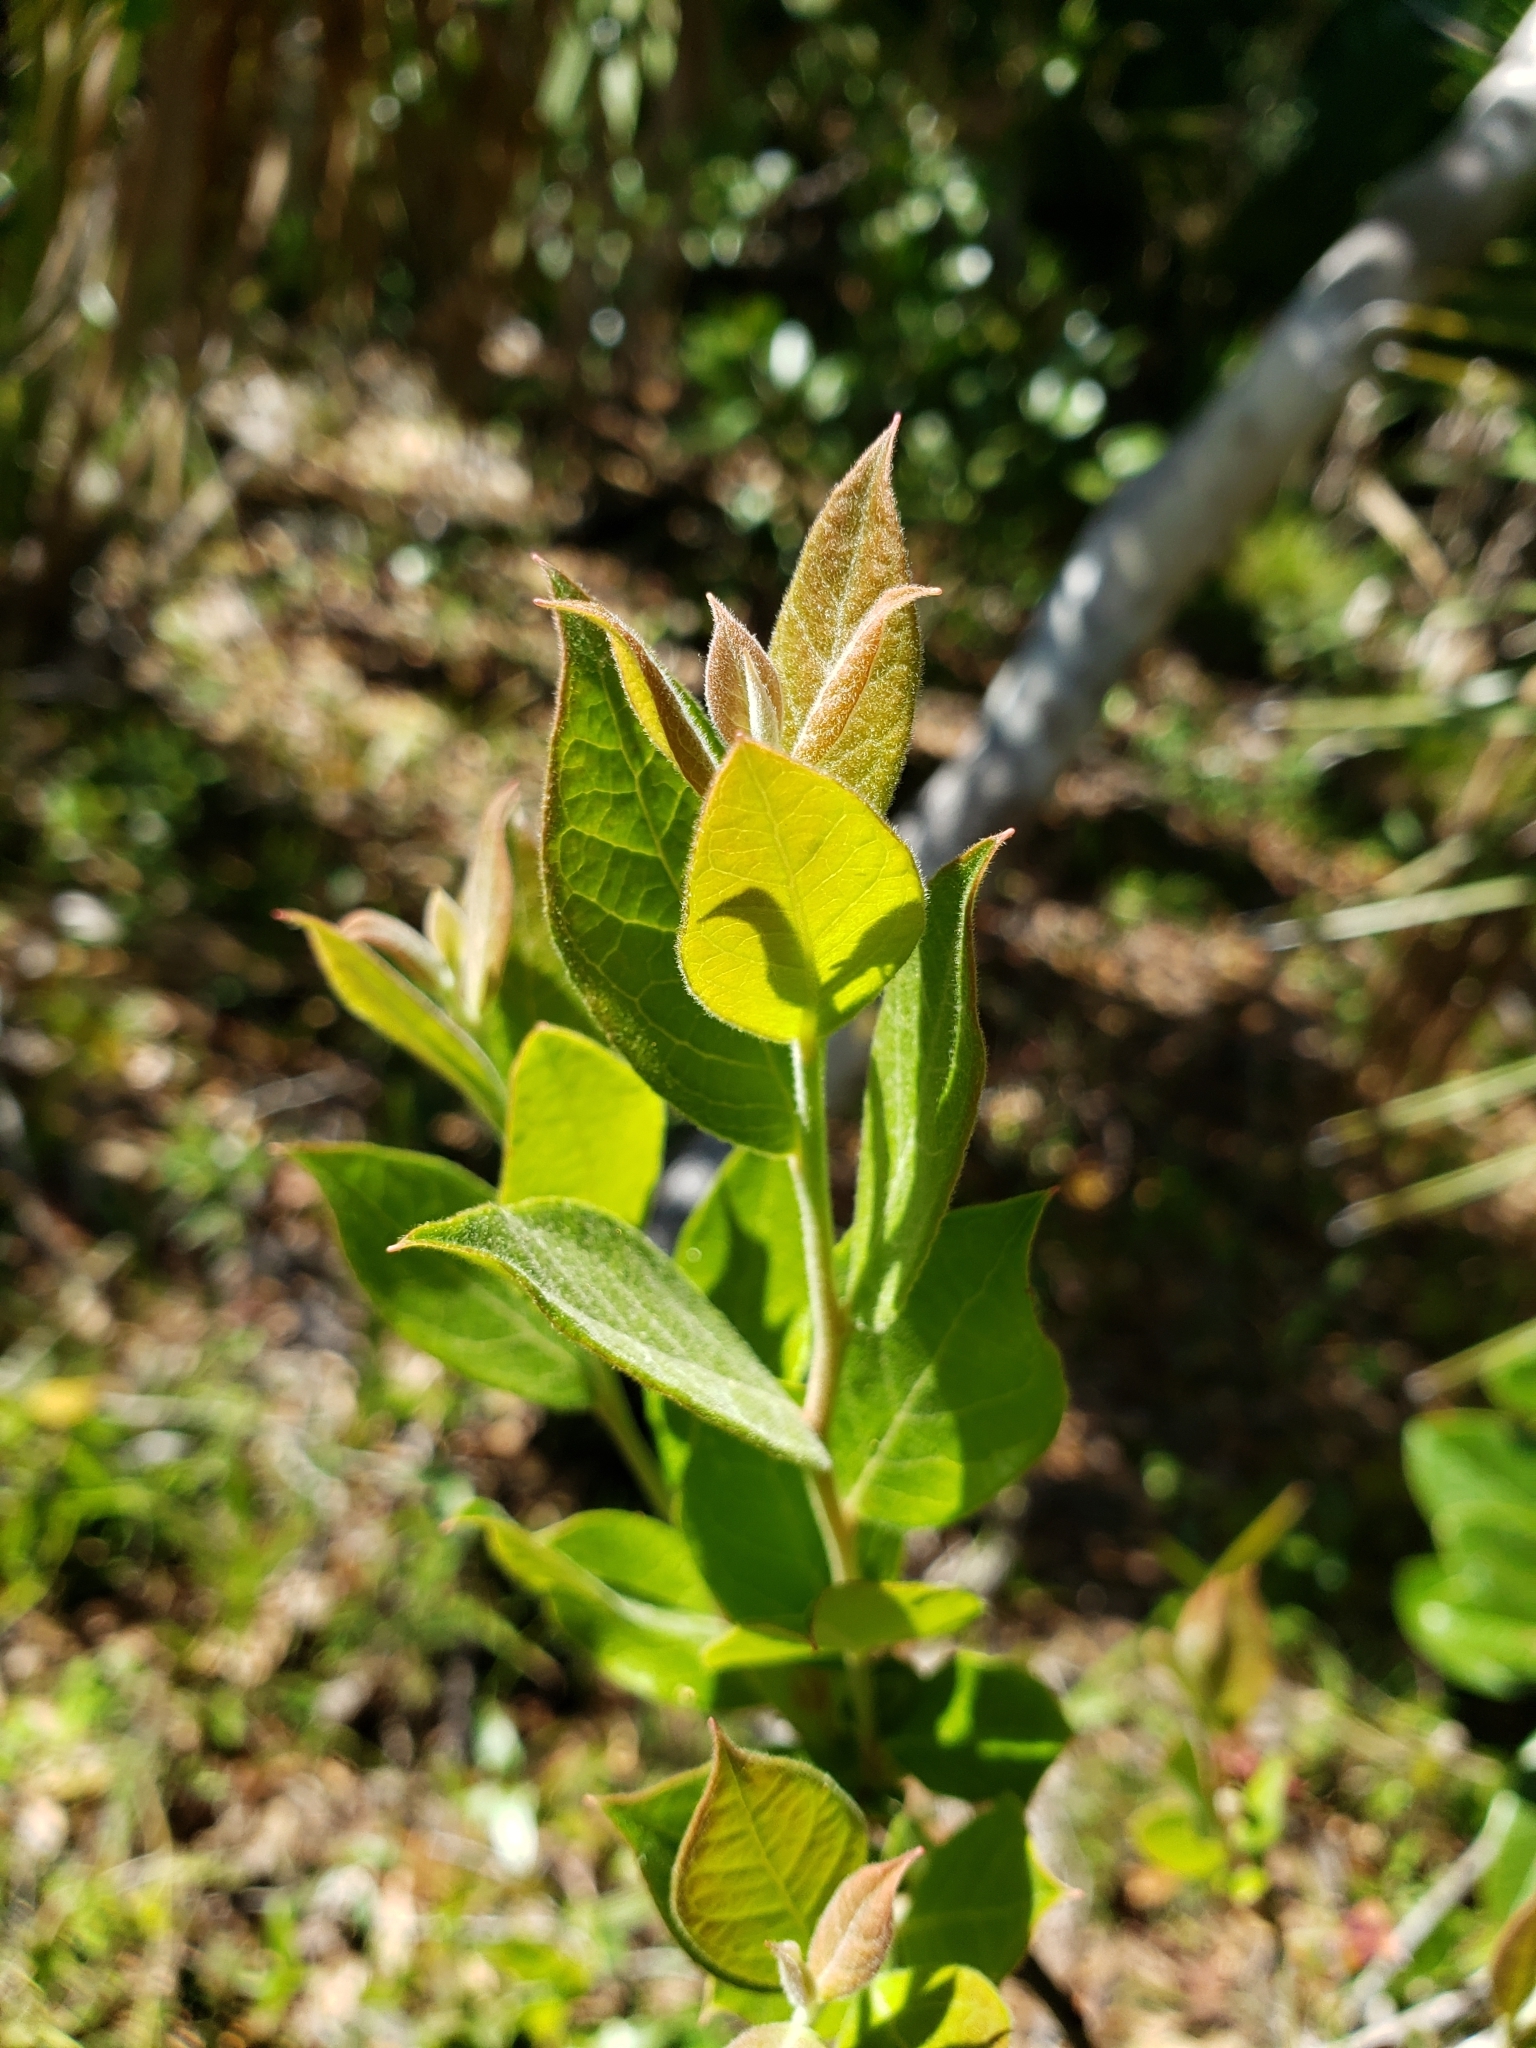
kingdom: Plantae
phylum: Tracheophyta
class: Magnoliopsida
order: Ericales
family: Ericaceae
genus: Vaccinium
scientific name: Vaccinium corymbosum
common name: Blueberry
